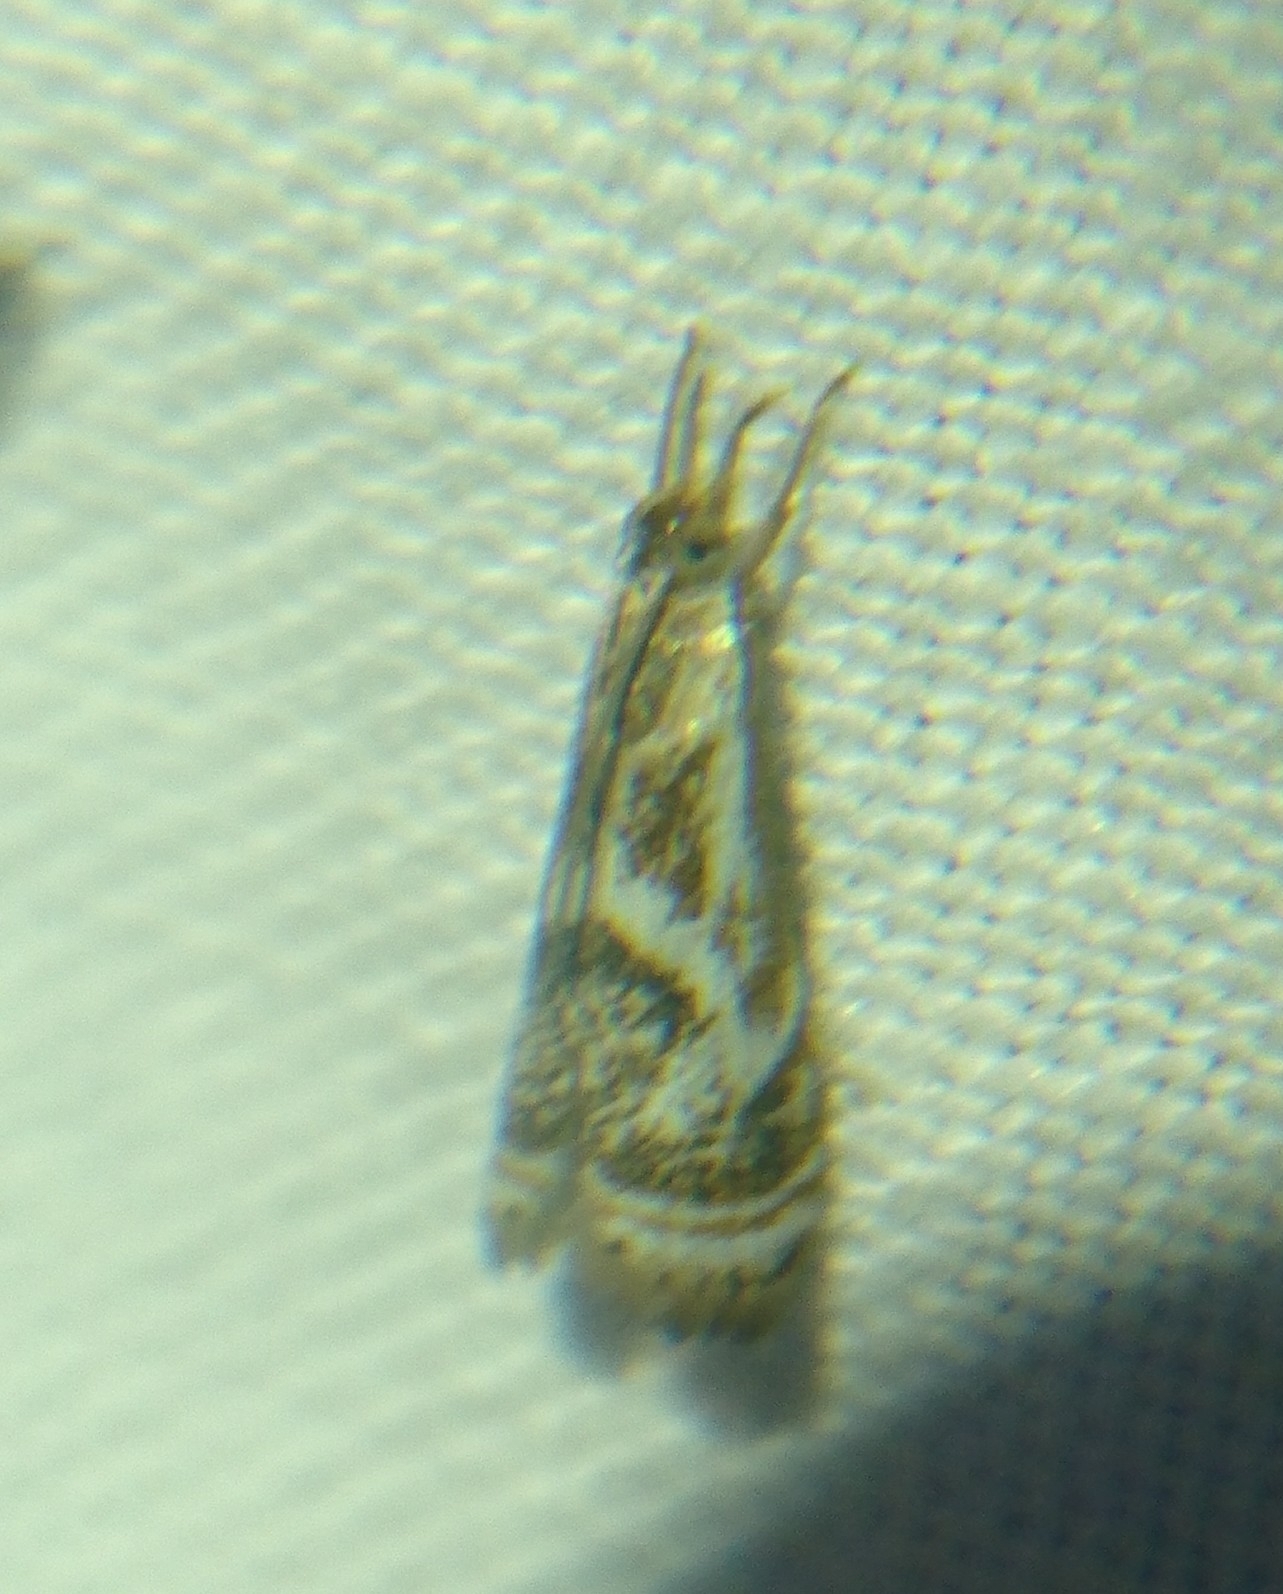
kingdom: Animalia
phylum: Arthropoda
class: Insecta
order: Lepidoptera
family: Crambidae
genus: Microcrambus
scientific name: Microcrambus elegans
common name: Elegant grass-veneer
